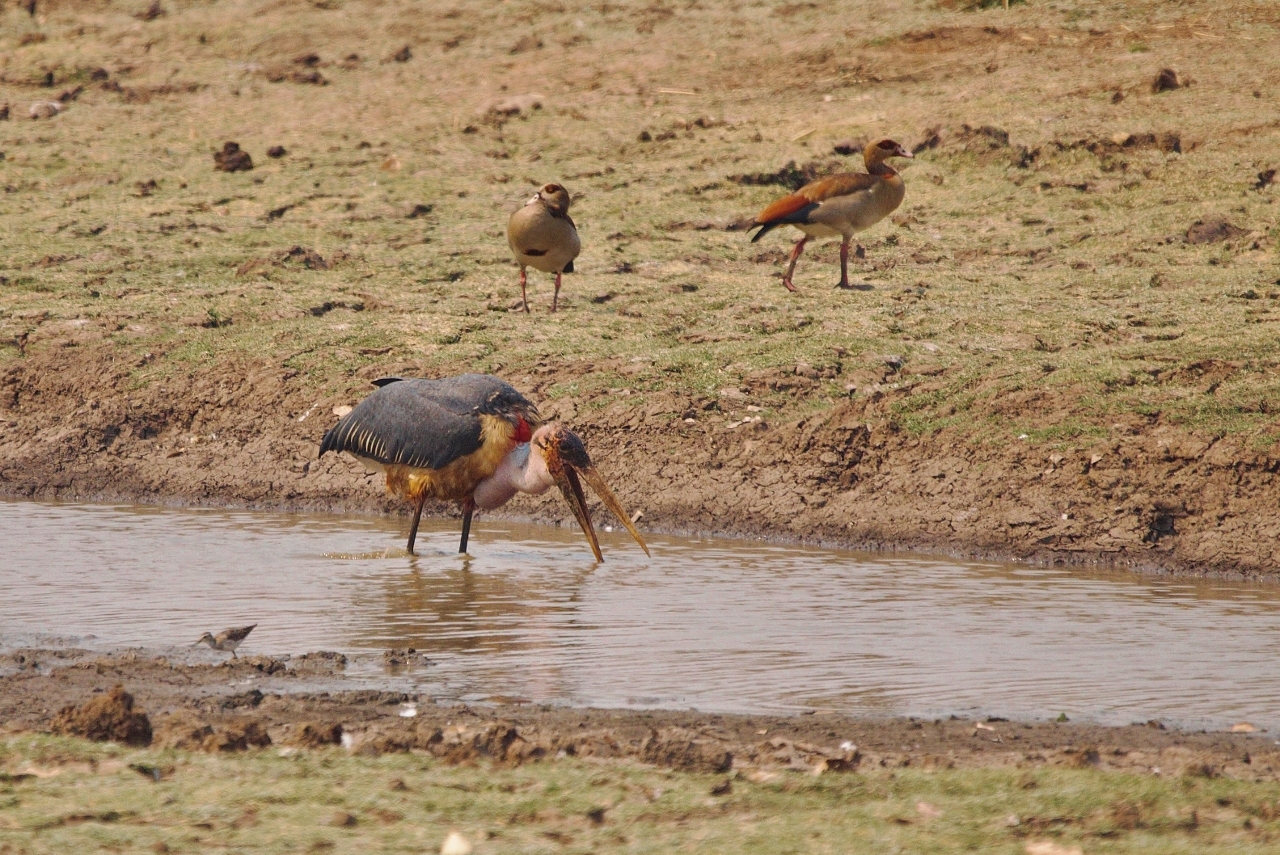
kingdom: Animalia
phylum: Chordata
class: Aves
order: Anseriformes
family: Anatidae
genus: Alopochen
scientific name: Alopochen aegyptiaca
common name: Egyptian goose
